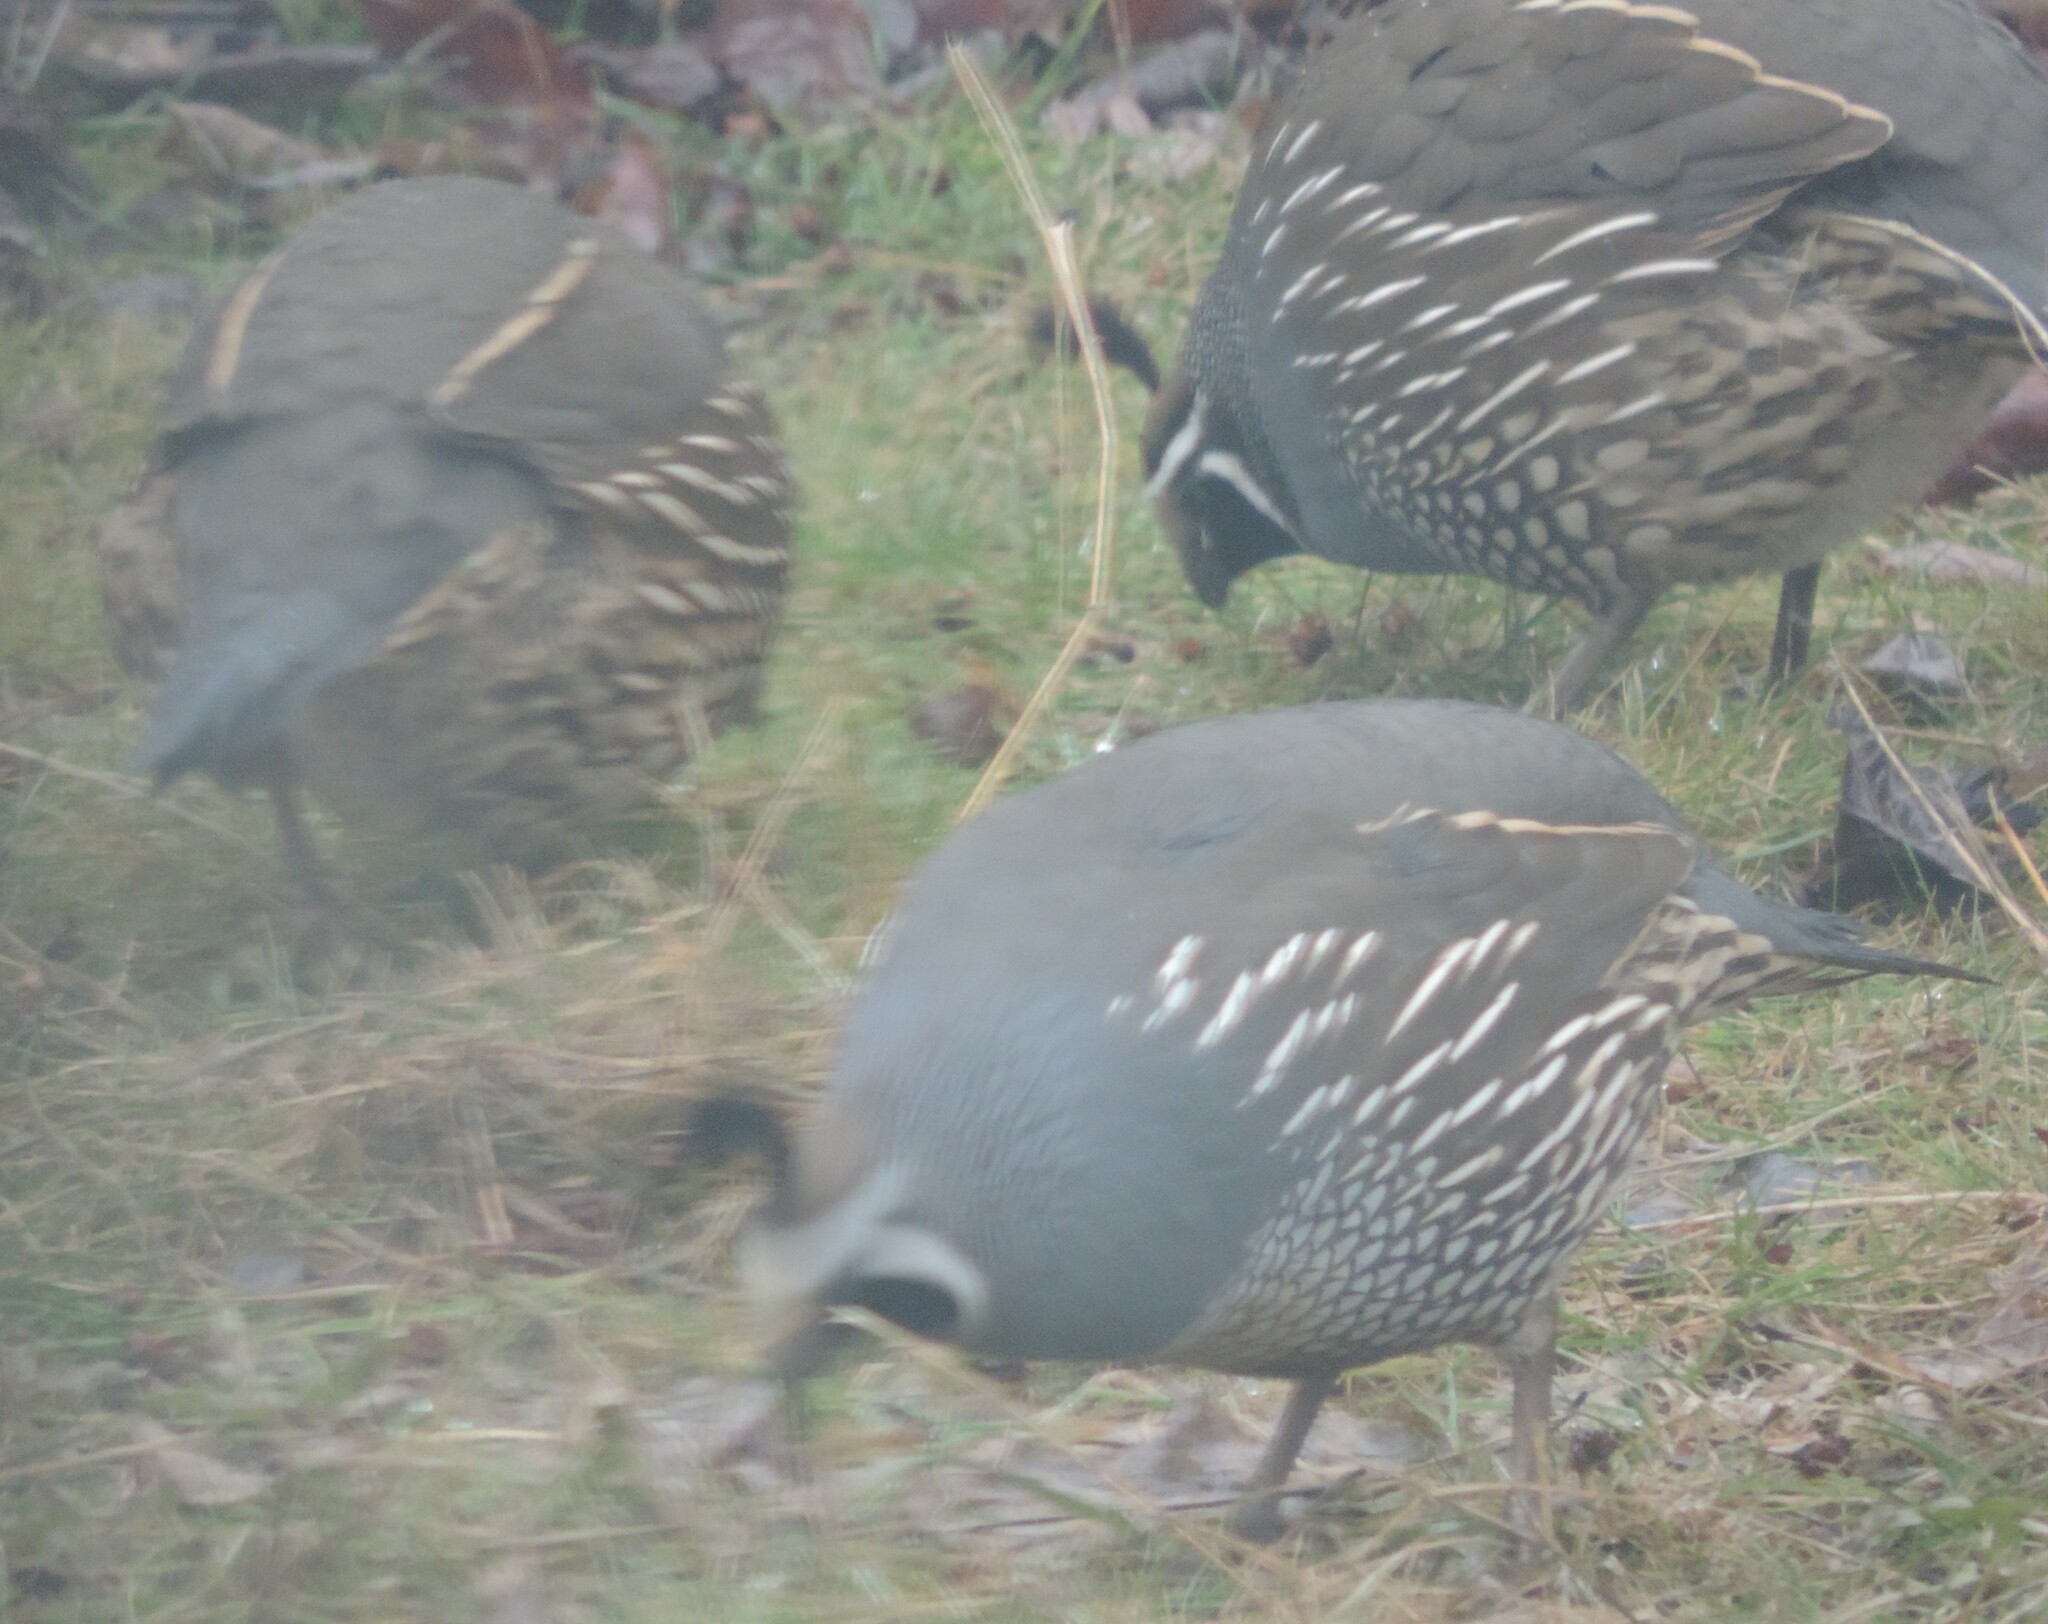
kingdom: Animalia
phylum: Chordata
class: Aves
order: Galliformes
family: Odontophoridae
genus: Callipepla
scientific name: Callipepla californica
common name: California quail
